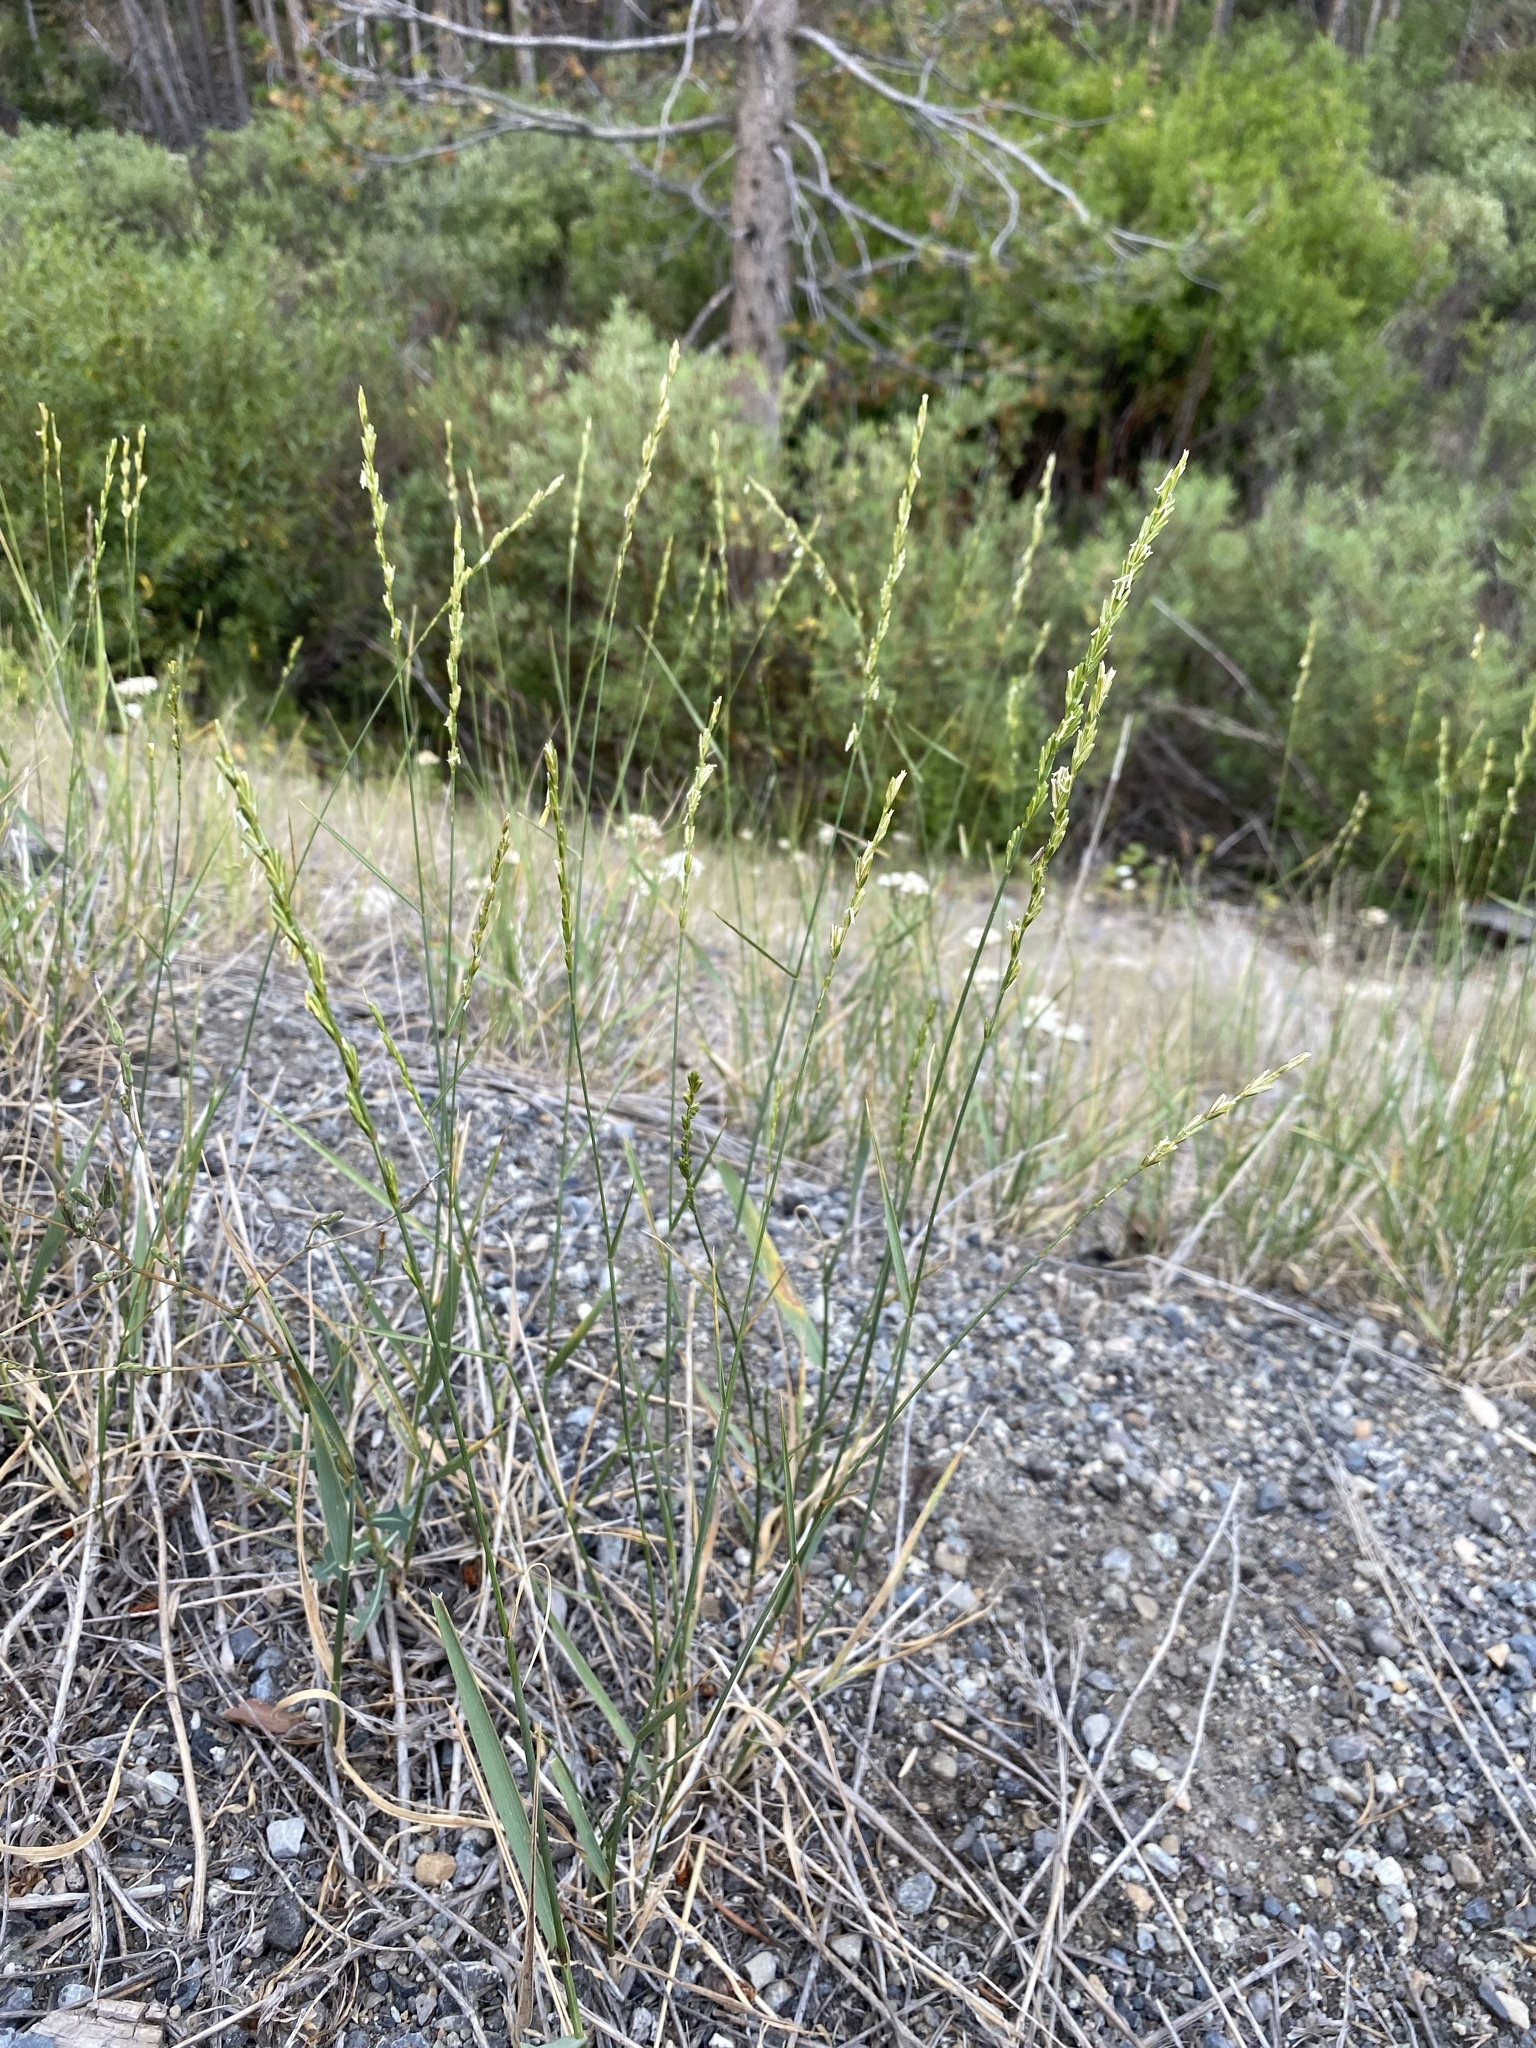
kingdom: Plantae
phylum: Tracheophyta
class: Liliopsida
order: Poales
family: Poaceae
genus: Thinopyrum
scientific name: Thinopyrum intermedium
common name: Intermediate wheatgrass
